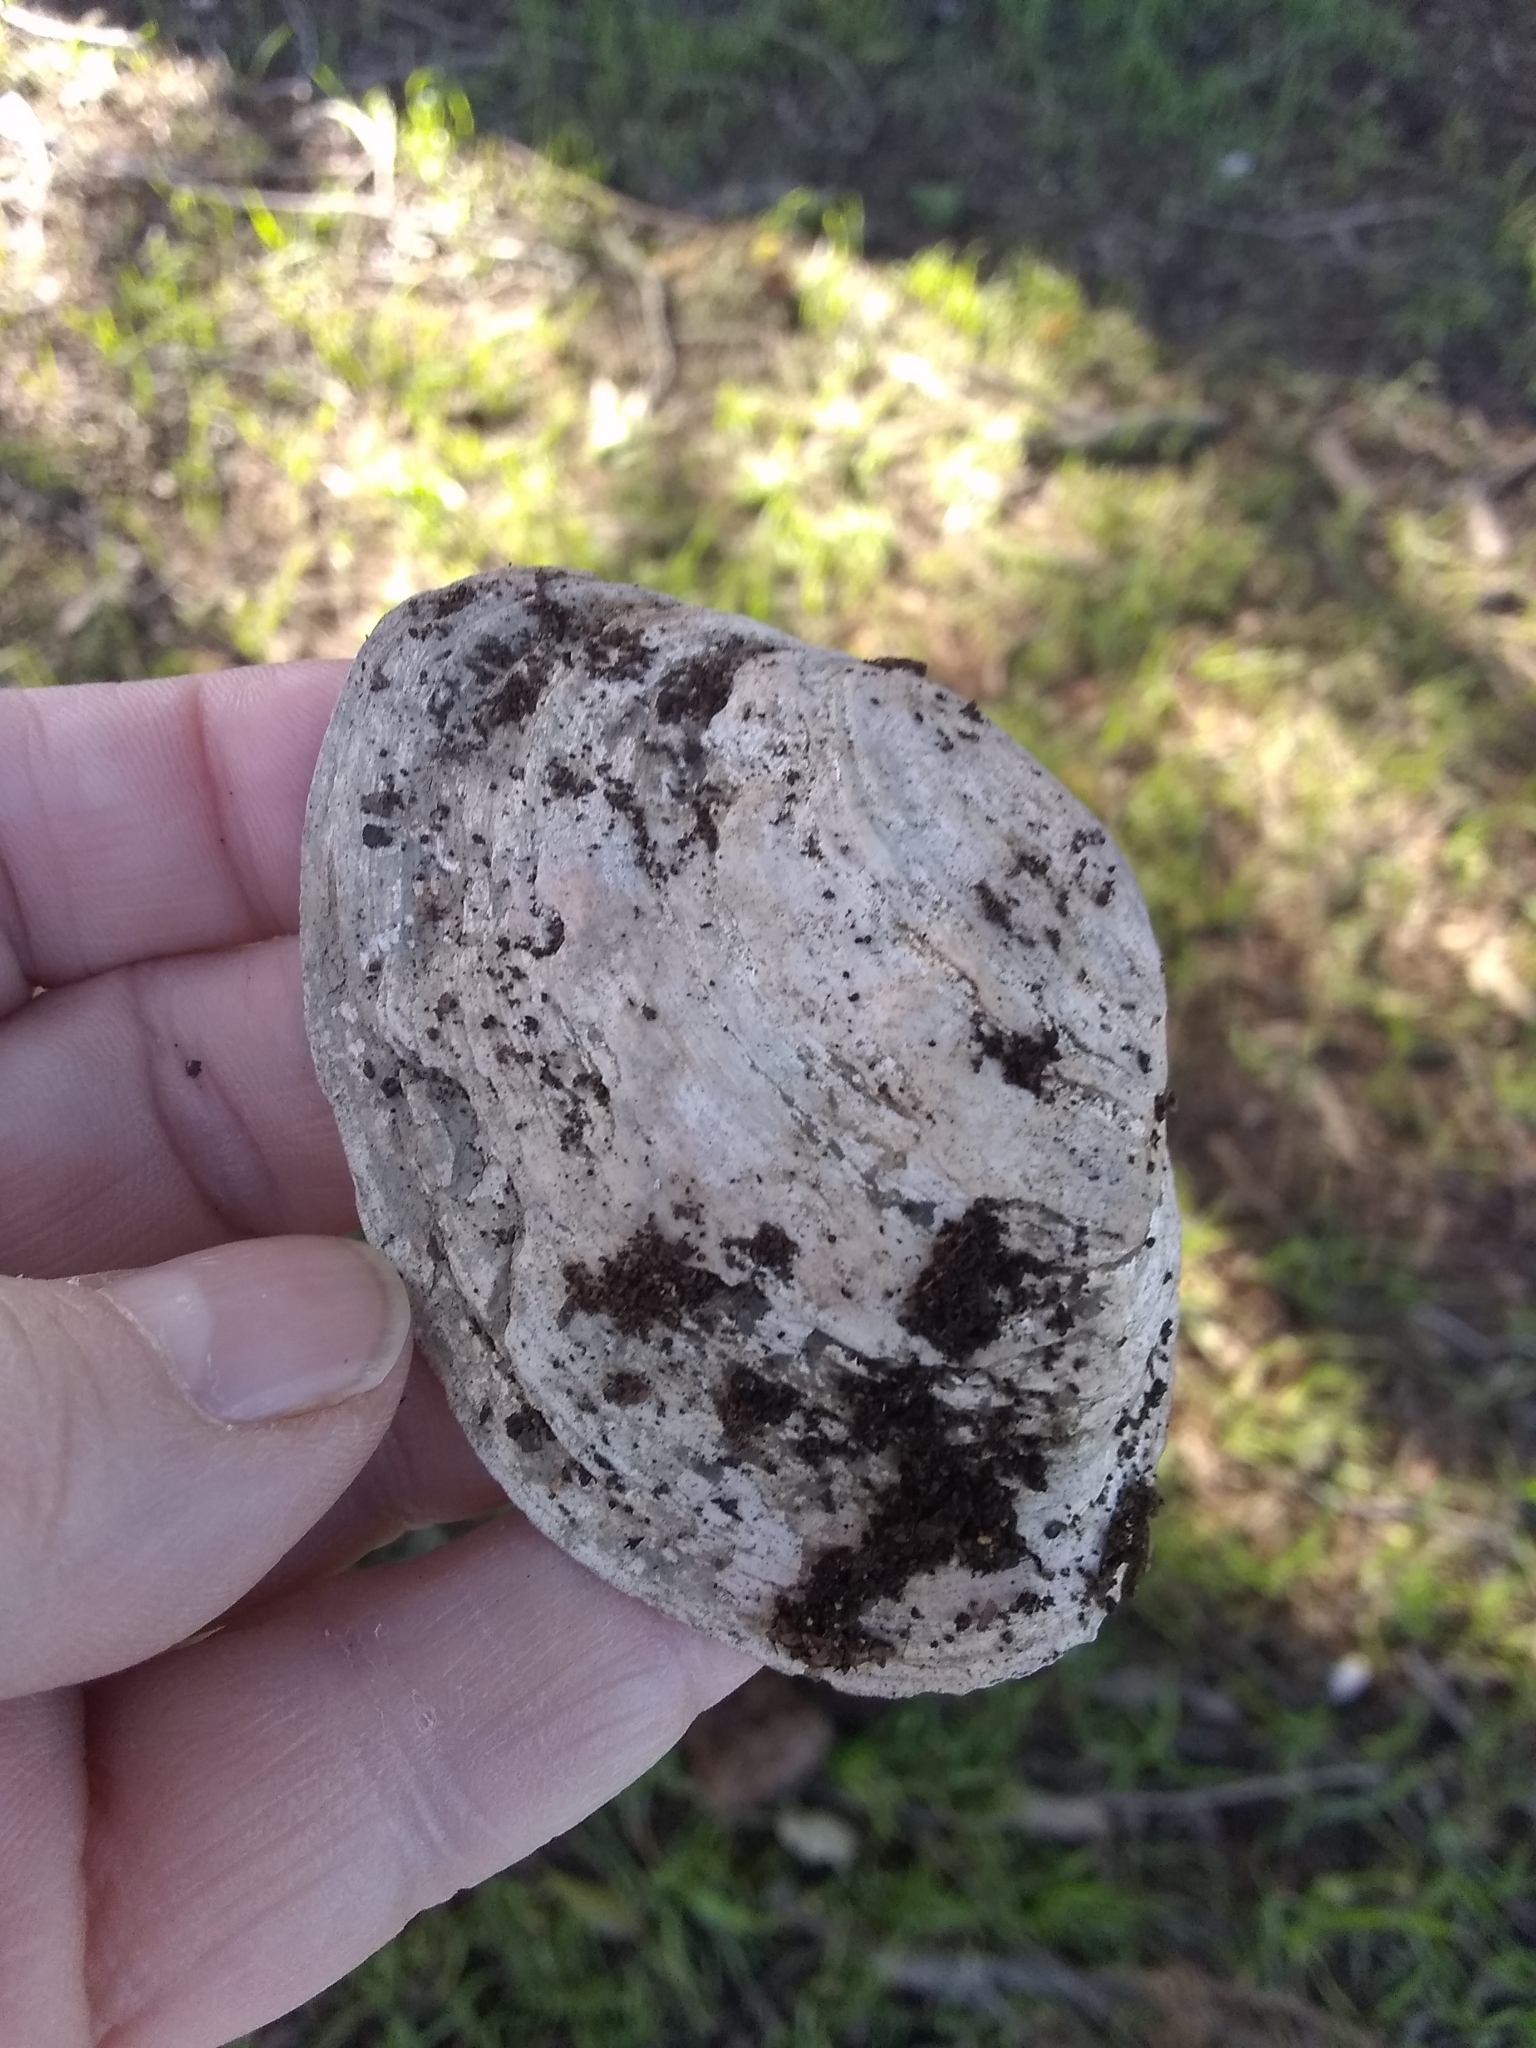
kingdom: Animalia
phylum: Mollusca
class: Bivalvia
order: Myida
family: Myidae
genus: Mya
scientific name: Mya arenaria
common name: Soft-shelled clam
